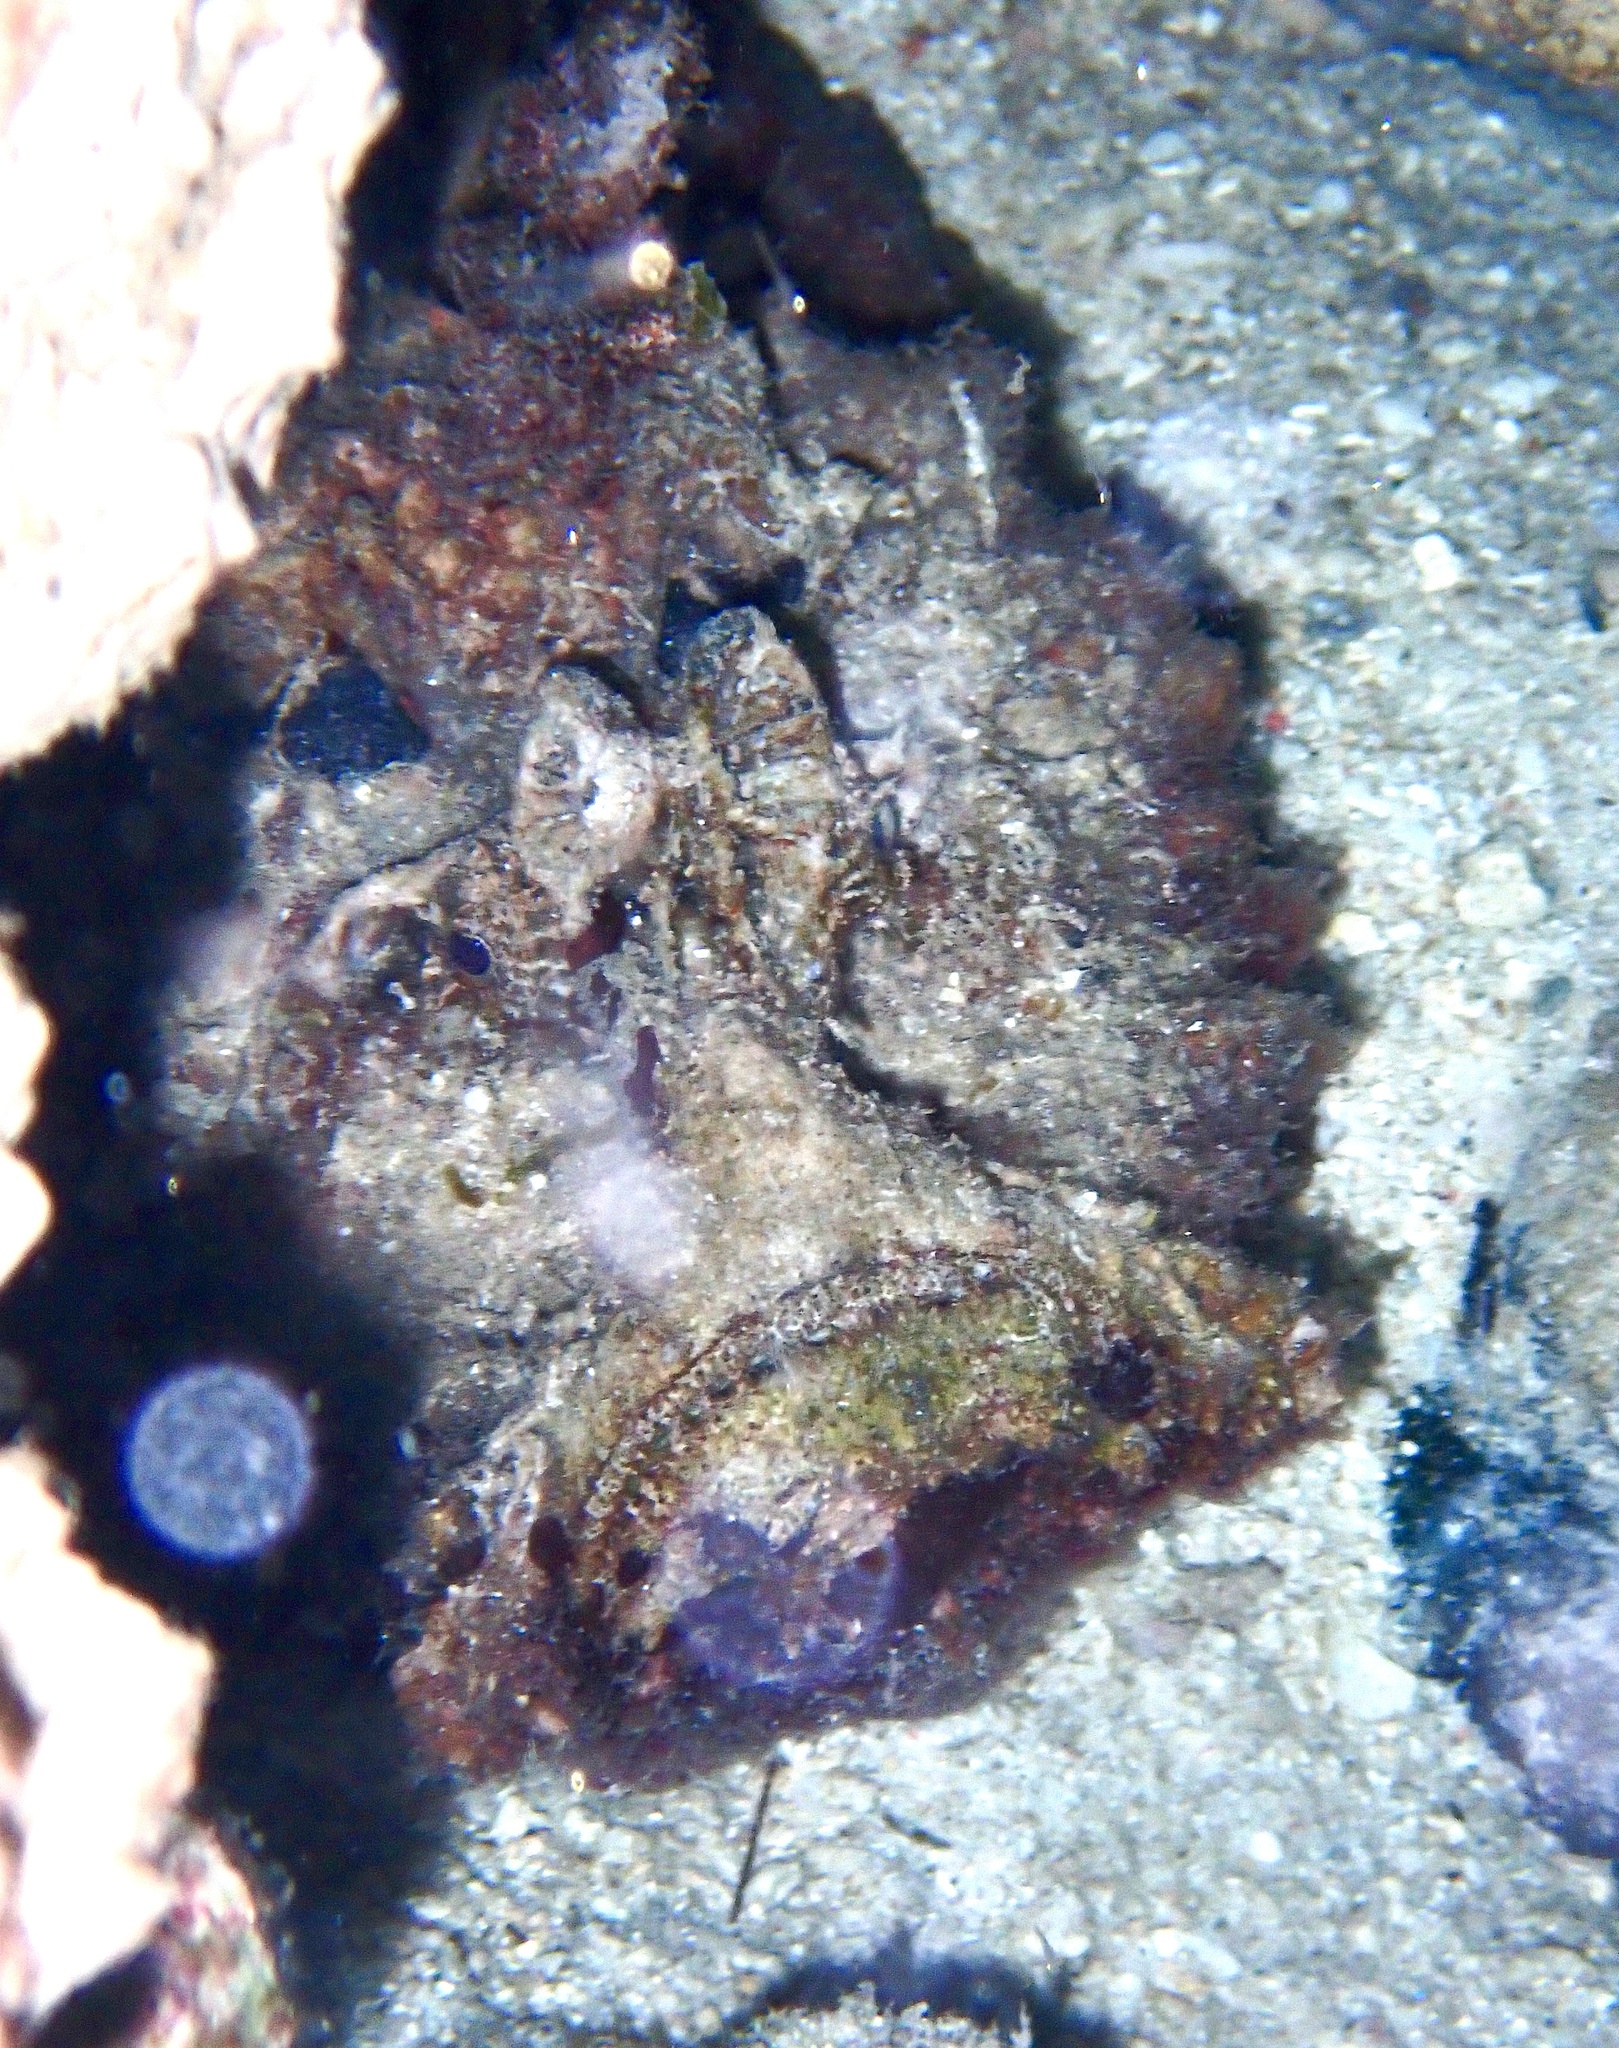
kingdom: Animalia
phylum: Chordata
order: Scorpaeniformes
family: Synanceiidae
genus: Synanceia
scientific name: Synanceia horrida
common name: Estuarine stonefish
